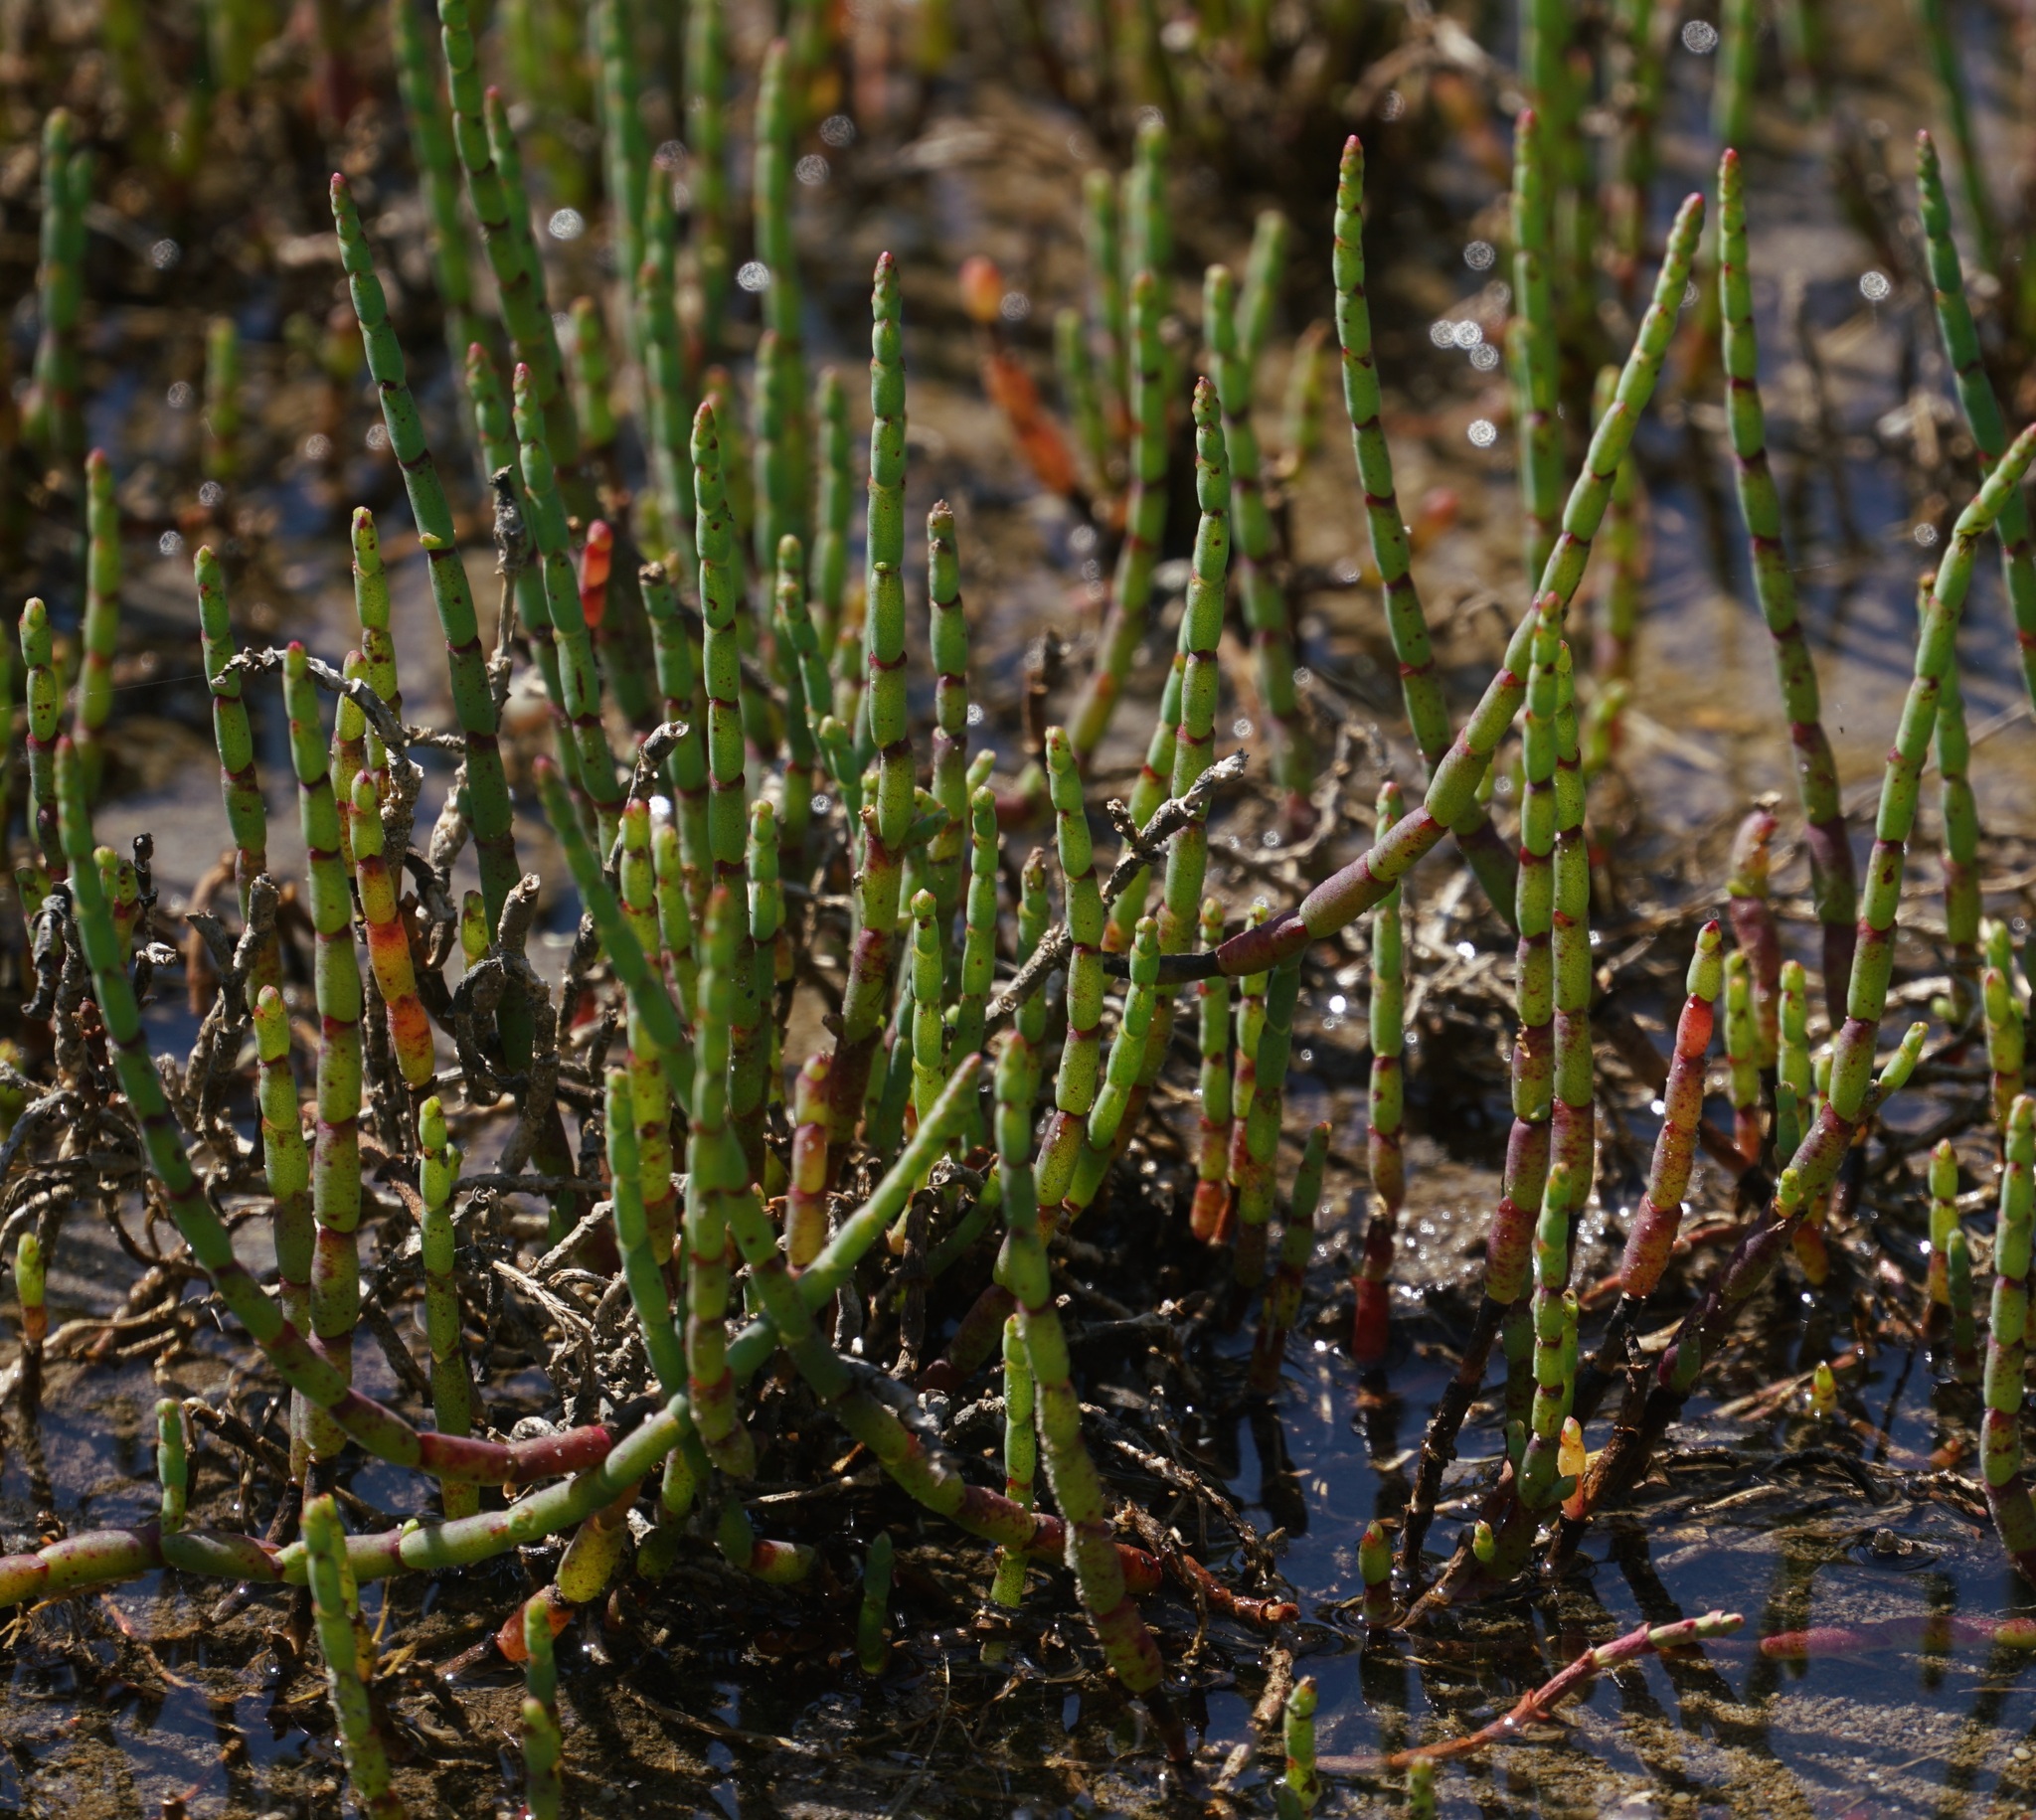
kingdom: Plantae
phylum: Tracheophyta
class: Magnoliopsida
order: Caryophyllales
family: Amaranthaceae
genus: Salicornia
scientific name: Salicornia quinqueflora
